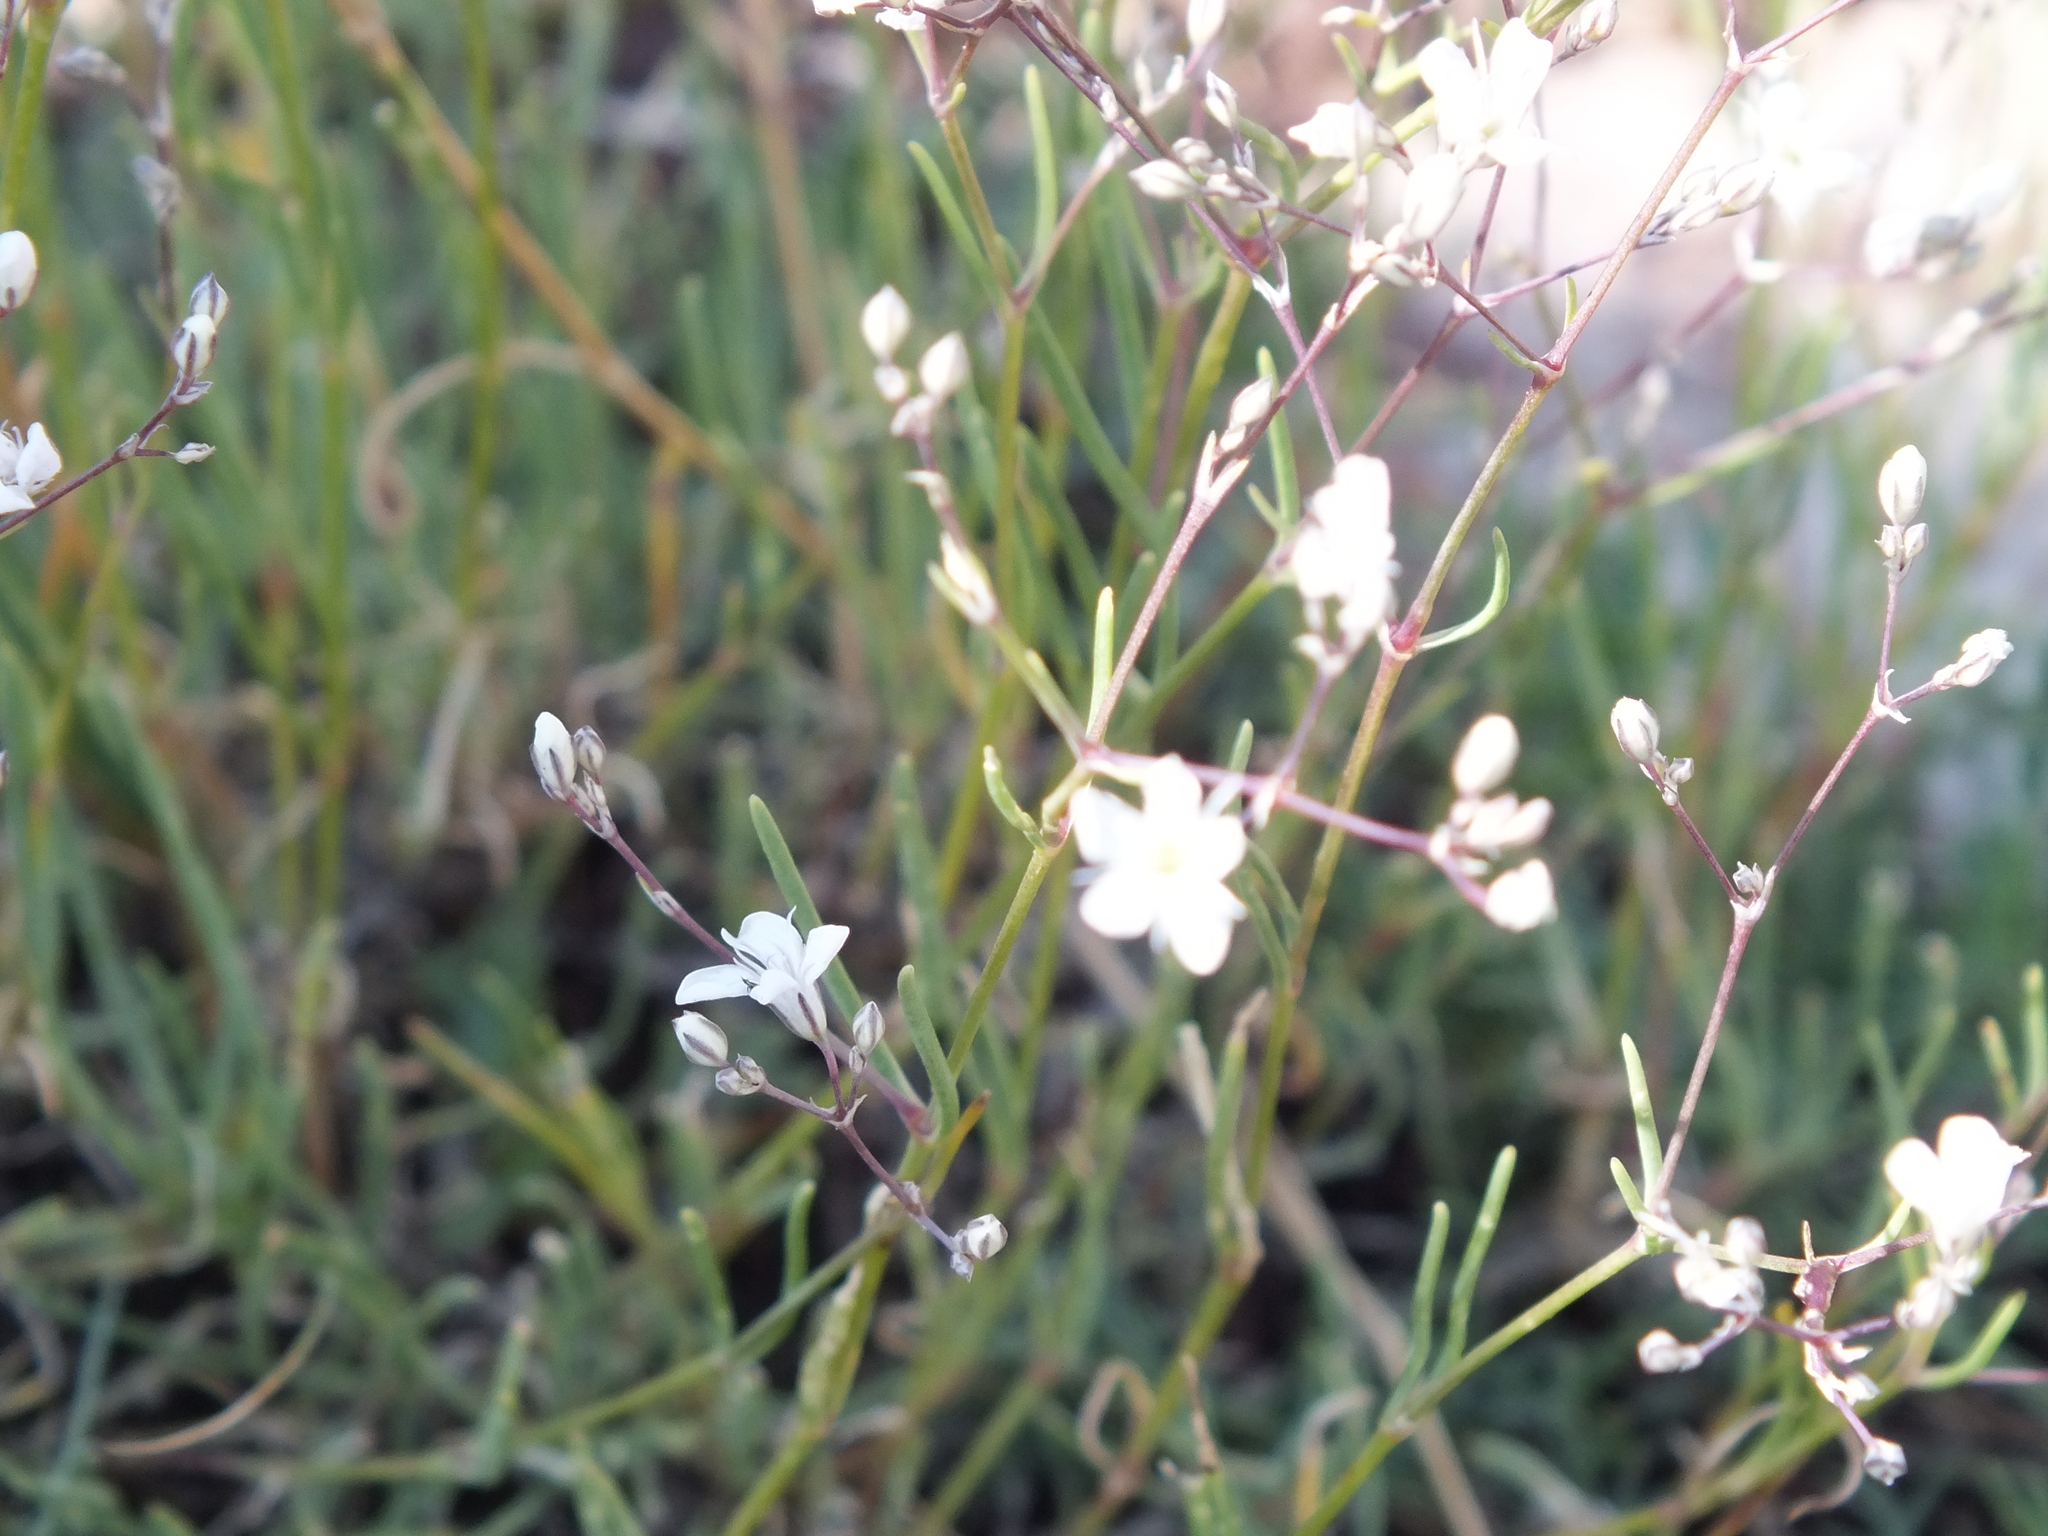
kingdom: Plantae
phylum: Tracheophyta
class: Magnoliopsida
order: Caryophyllales
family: Caryophyllaceae
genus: Gypsophila
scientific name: Gypsophila patrinii
